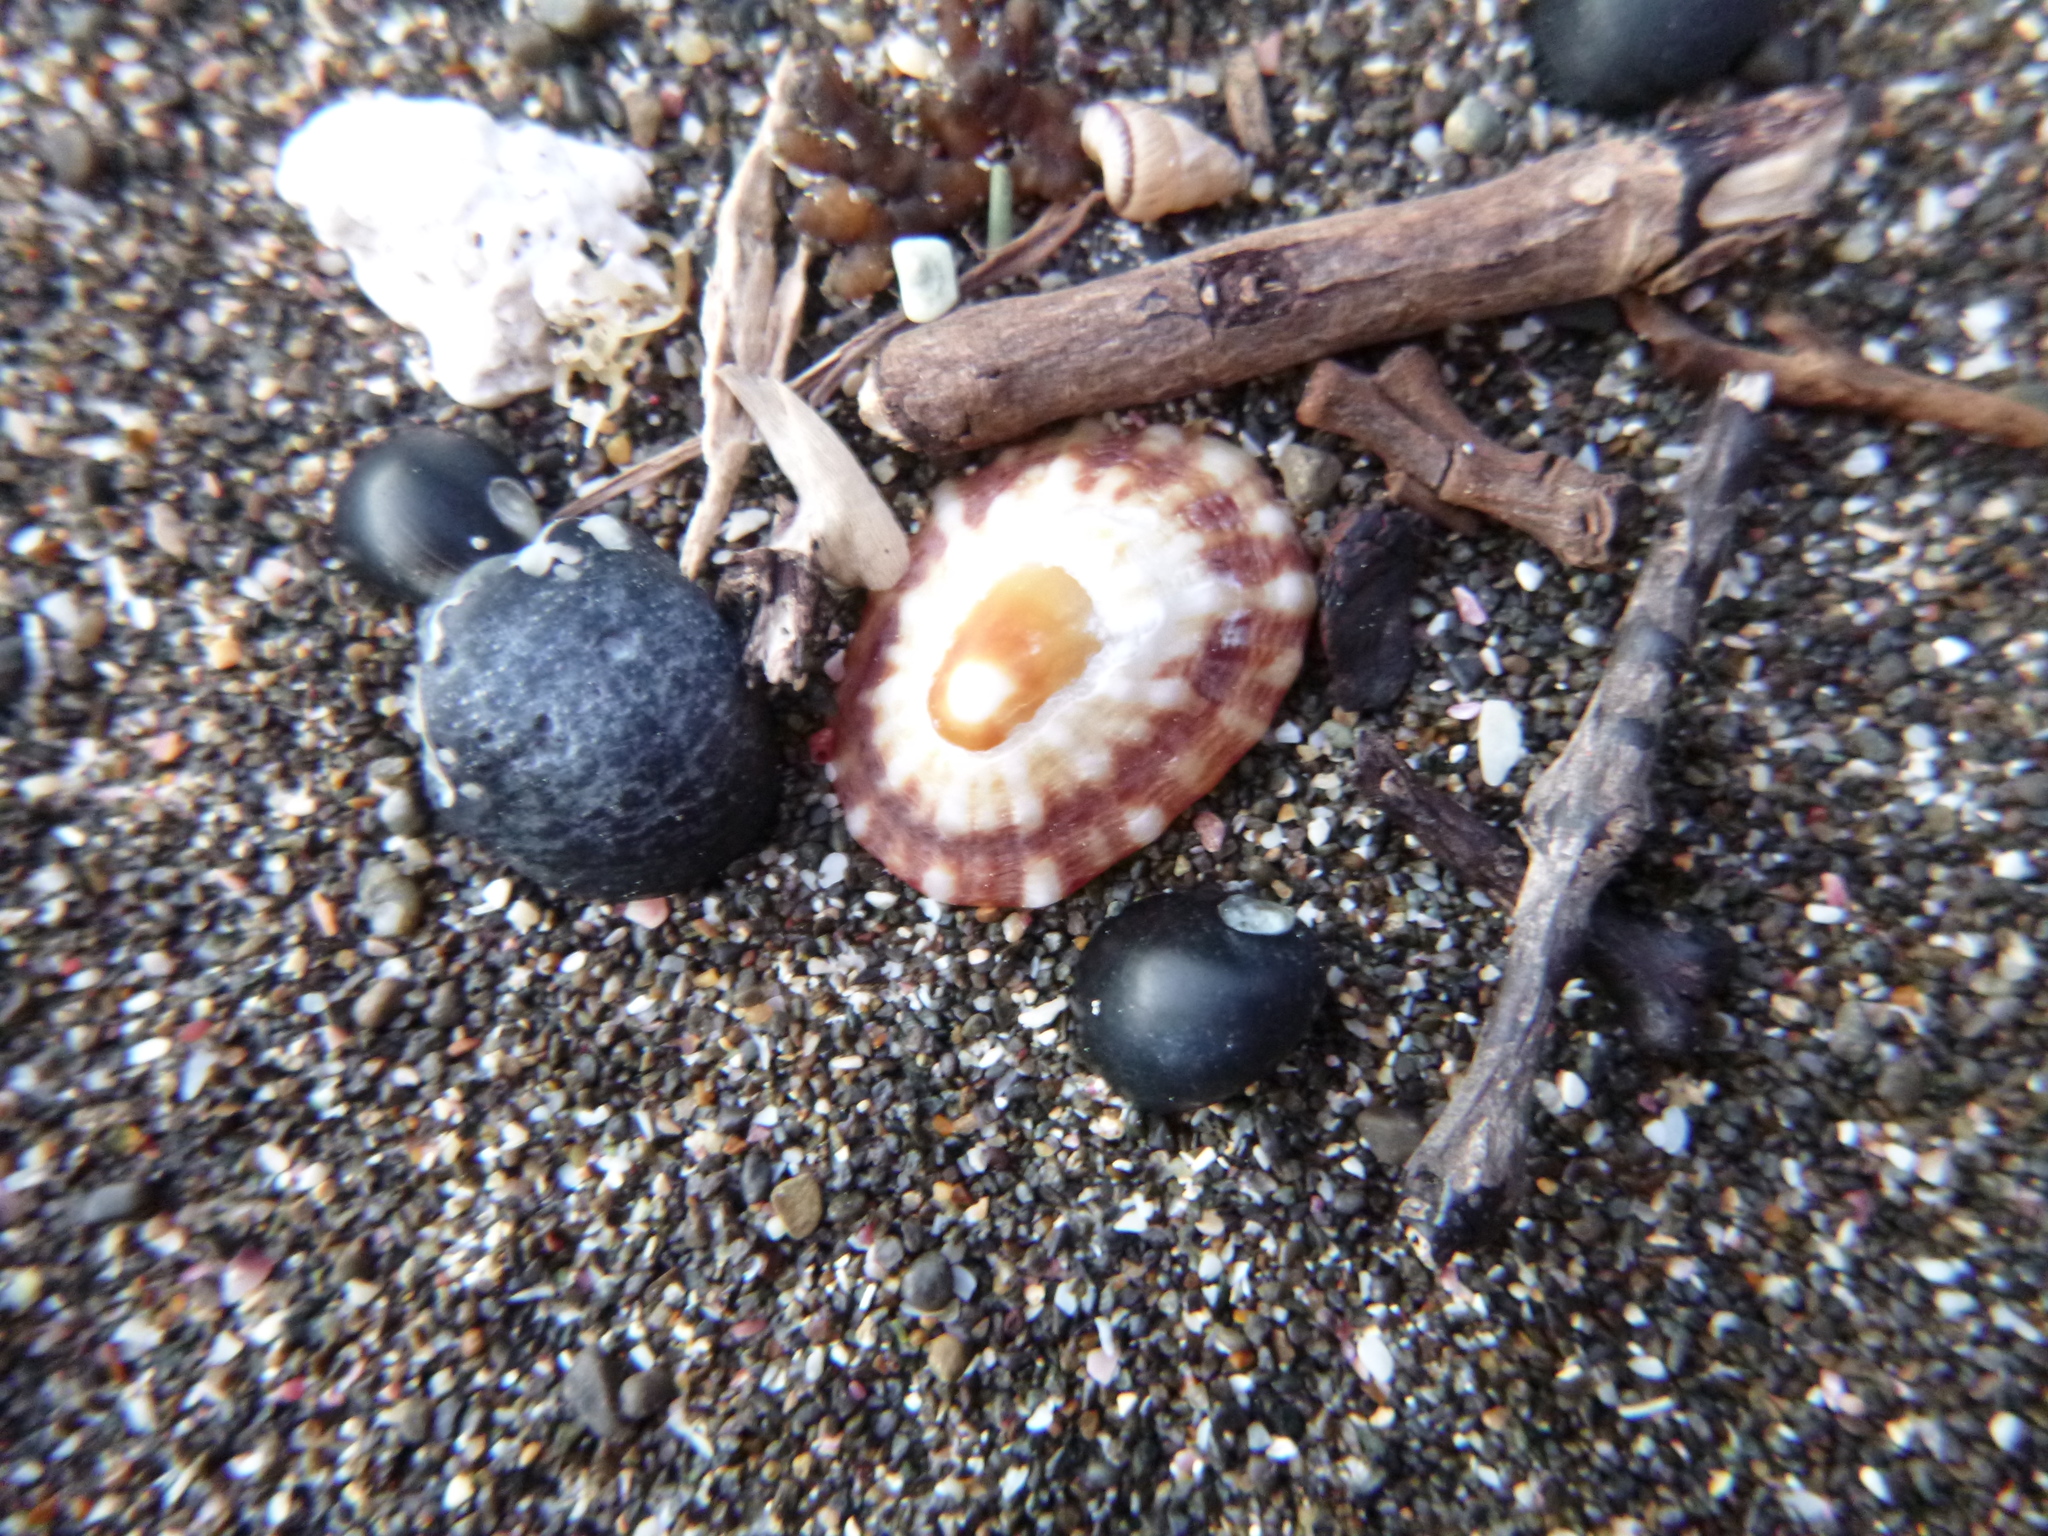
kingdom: Animalia
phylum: Mollusca
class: Gastropoda
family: Nacellidae
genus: Cellana
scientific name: Cellana stellifera
